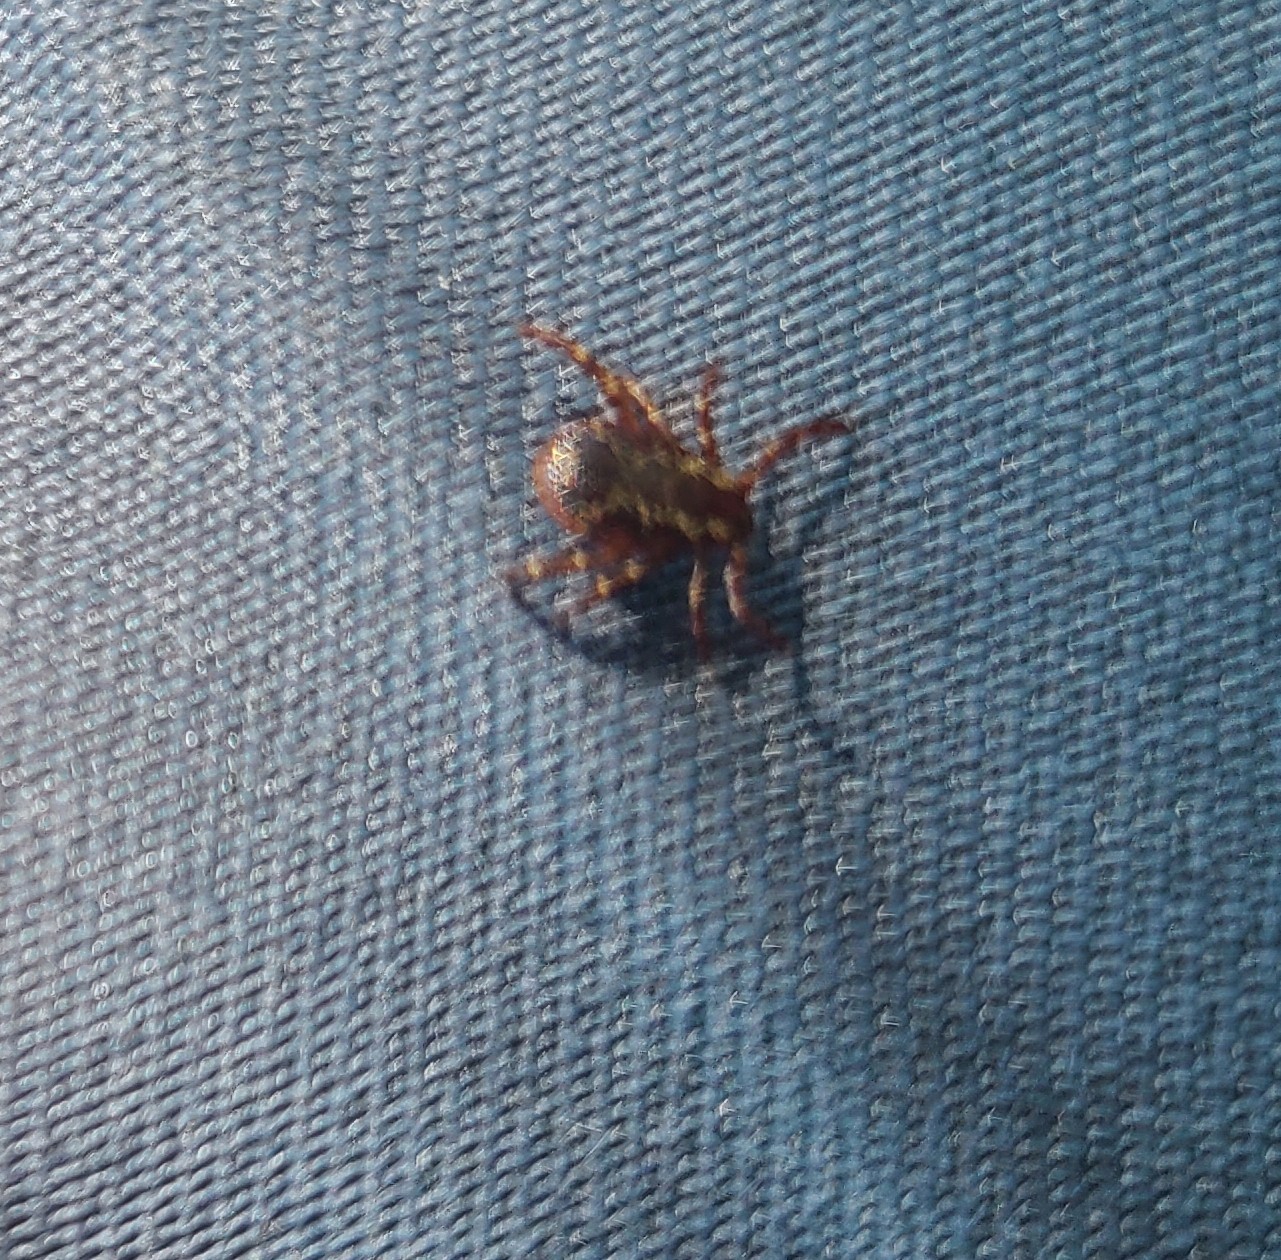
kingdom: Animalia
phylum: Arthropoda
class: Arachnida
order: Ixodida
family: Ixodidae
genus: Dermacentor
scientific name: Dermacentor variabilis
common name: American dog tick
